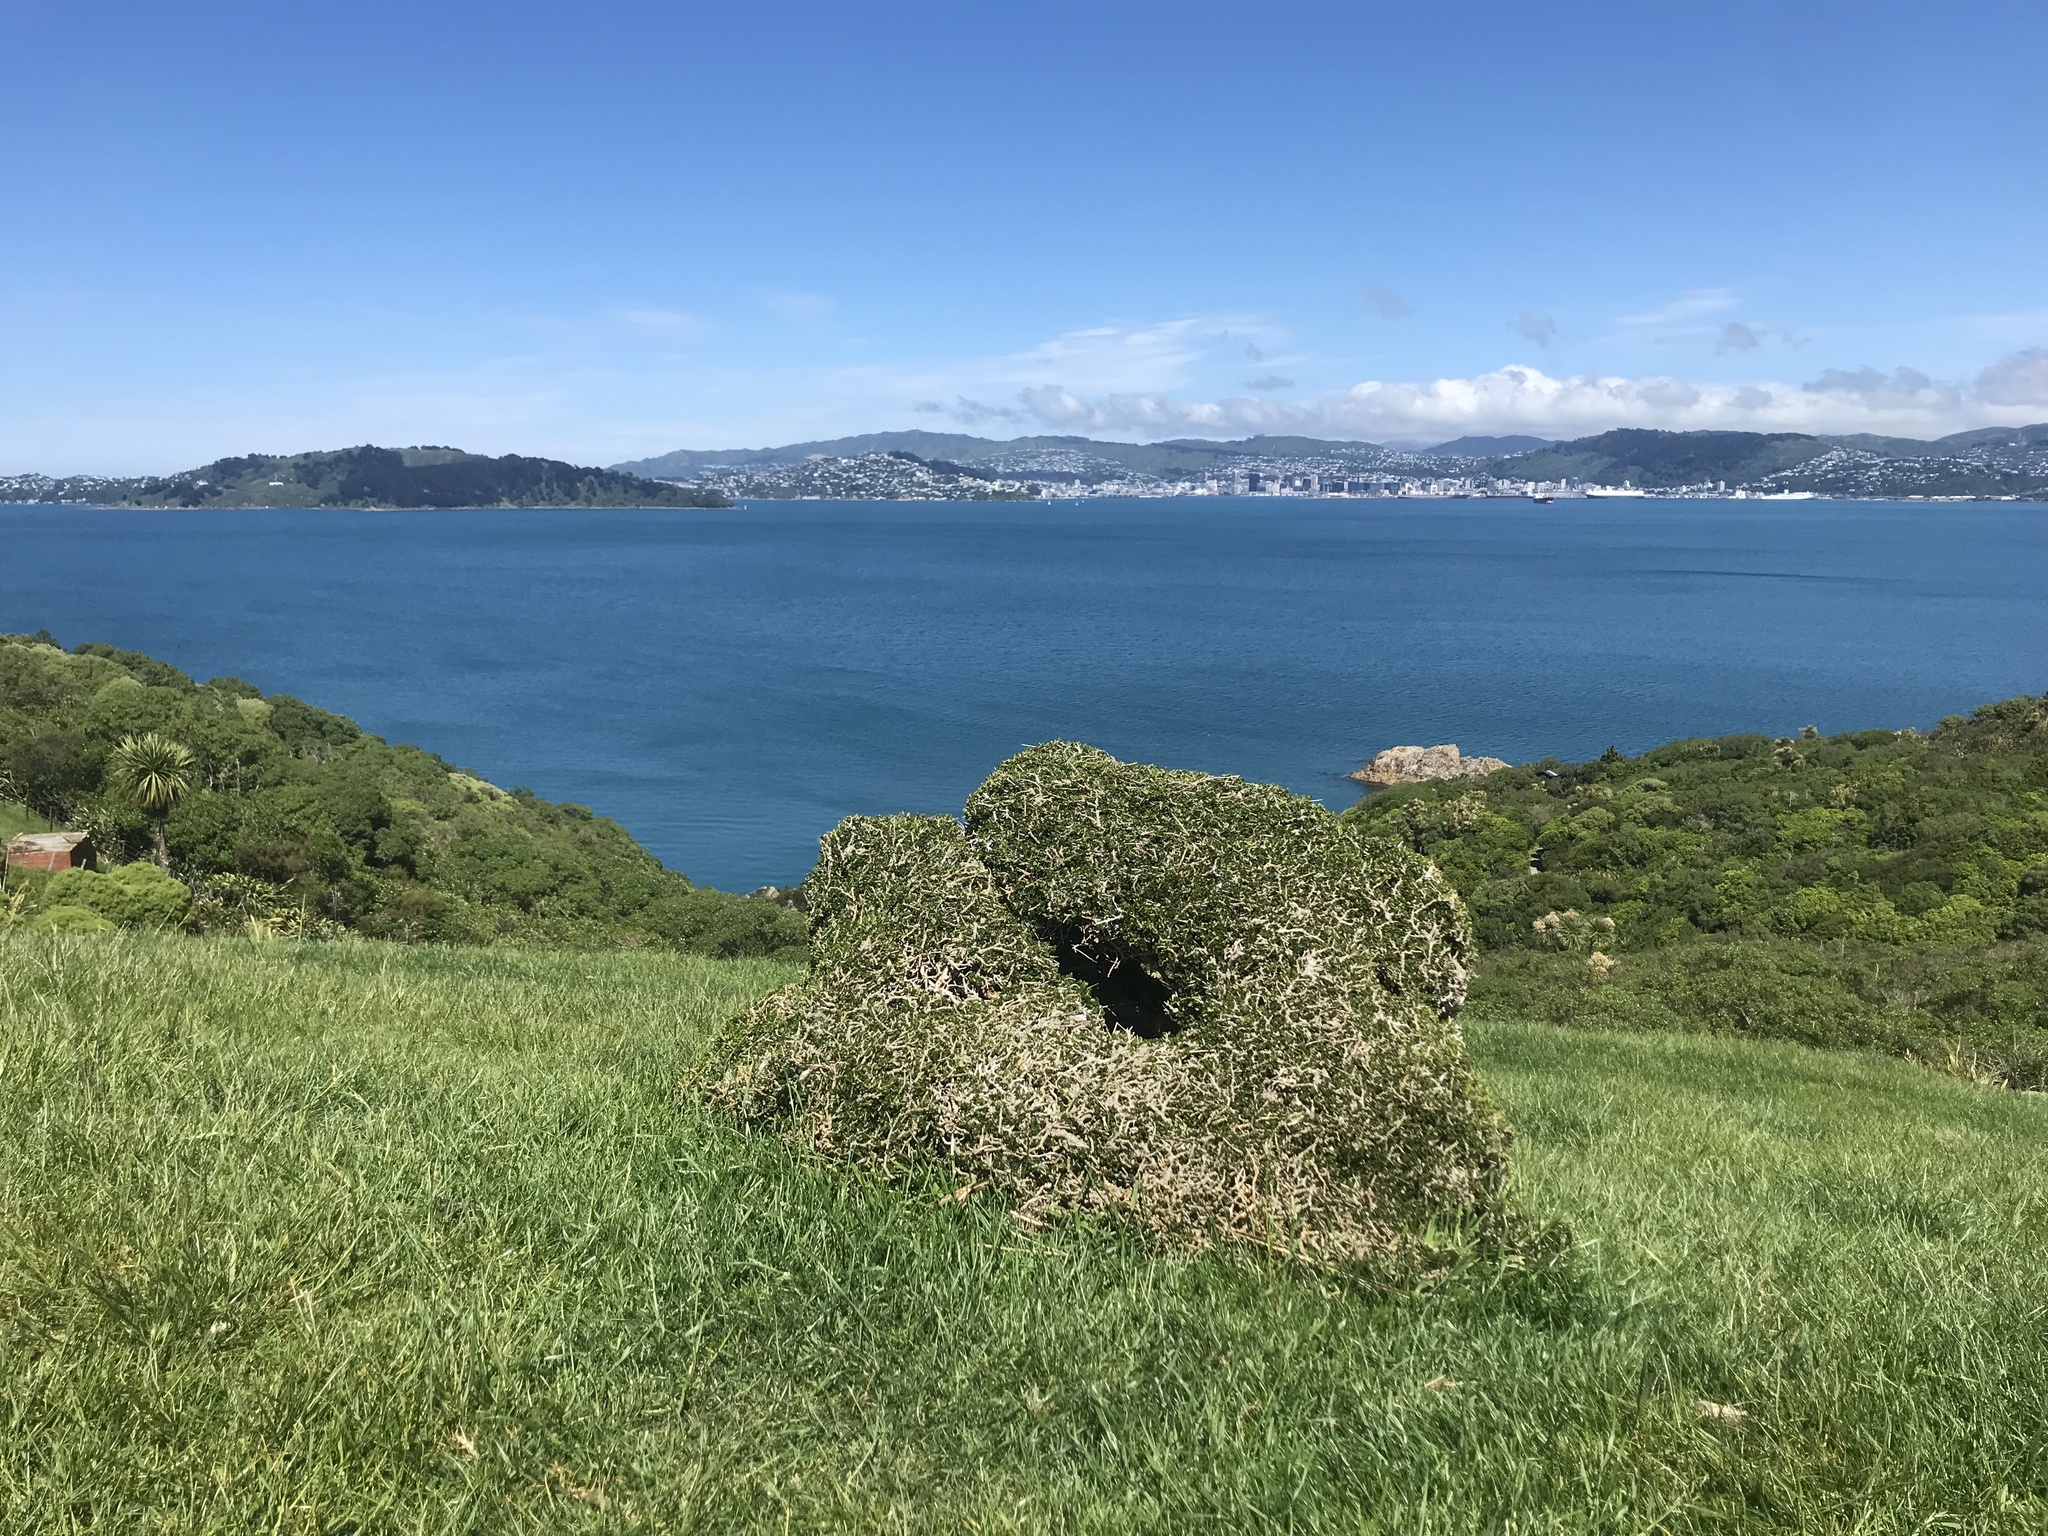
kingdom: Plantae
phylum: Tracheophyta
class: Magnoliopsida
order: Malpighiales
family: Violaceae
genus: Melicytus
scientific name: Melicytus crassifolius
